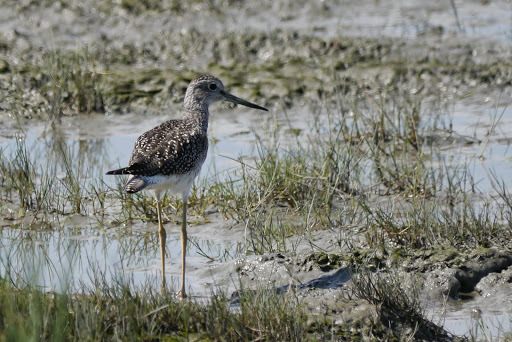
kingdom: Animalia
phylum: Chordata
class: Aves
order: Charadriiformes
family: Scolopacidae
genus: Tringa
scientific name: Tringa melanoleuca
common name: Greater yellowlegs
